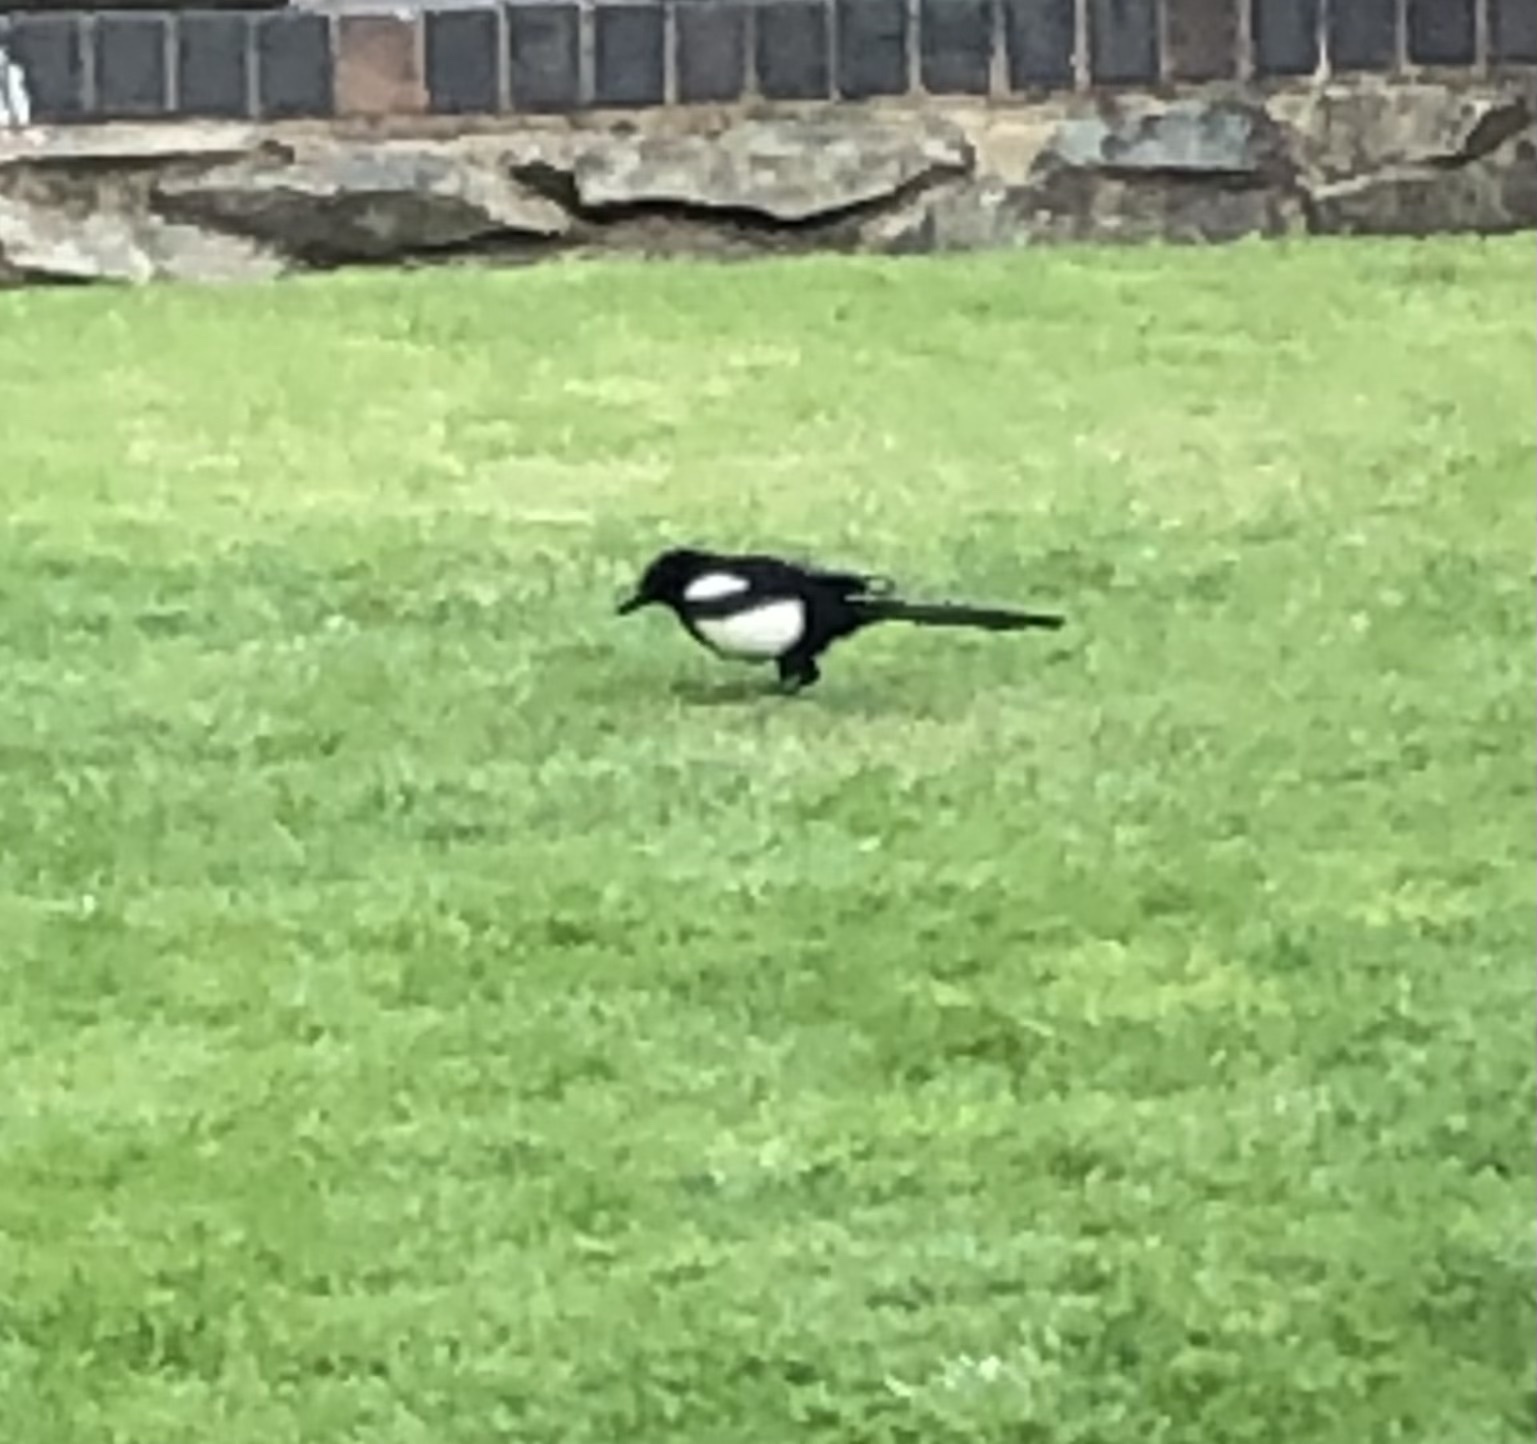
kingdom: Animalia
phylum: Chordata
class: Aves
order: Passeriformes
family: Corvidae
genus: Pica
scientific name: Pica pica
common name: Eurasian magpie
